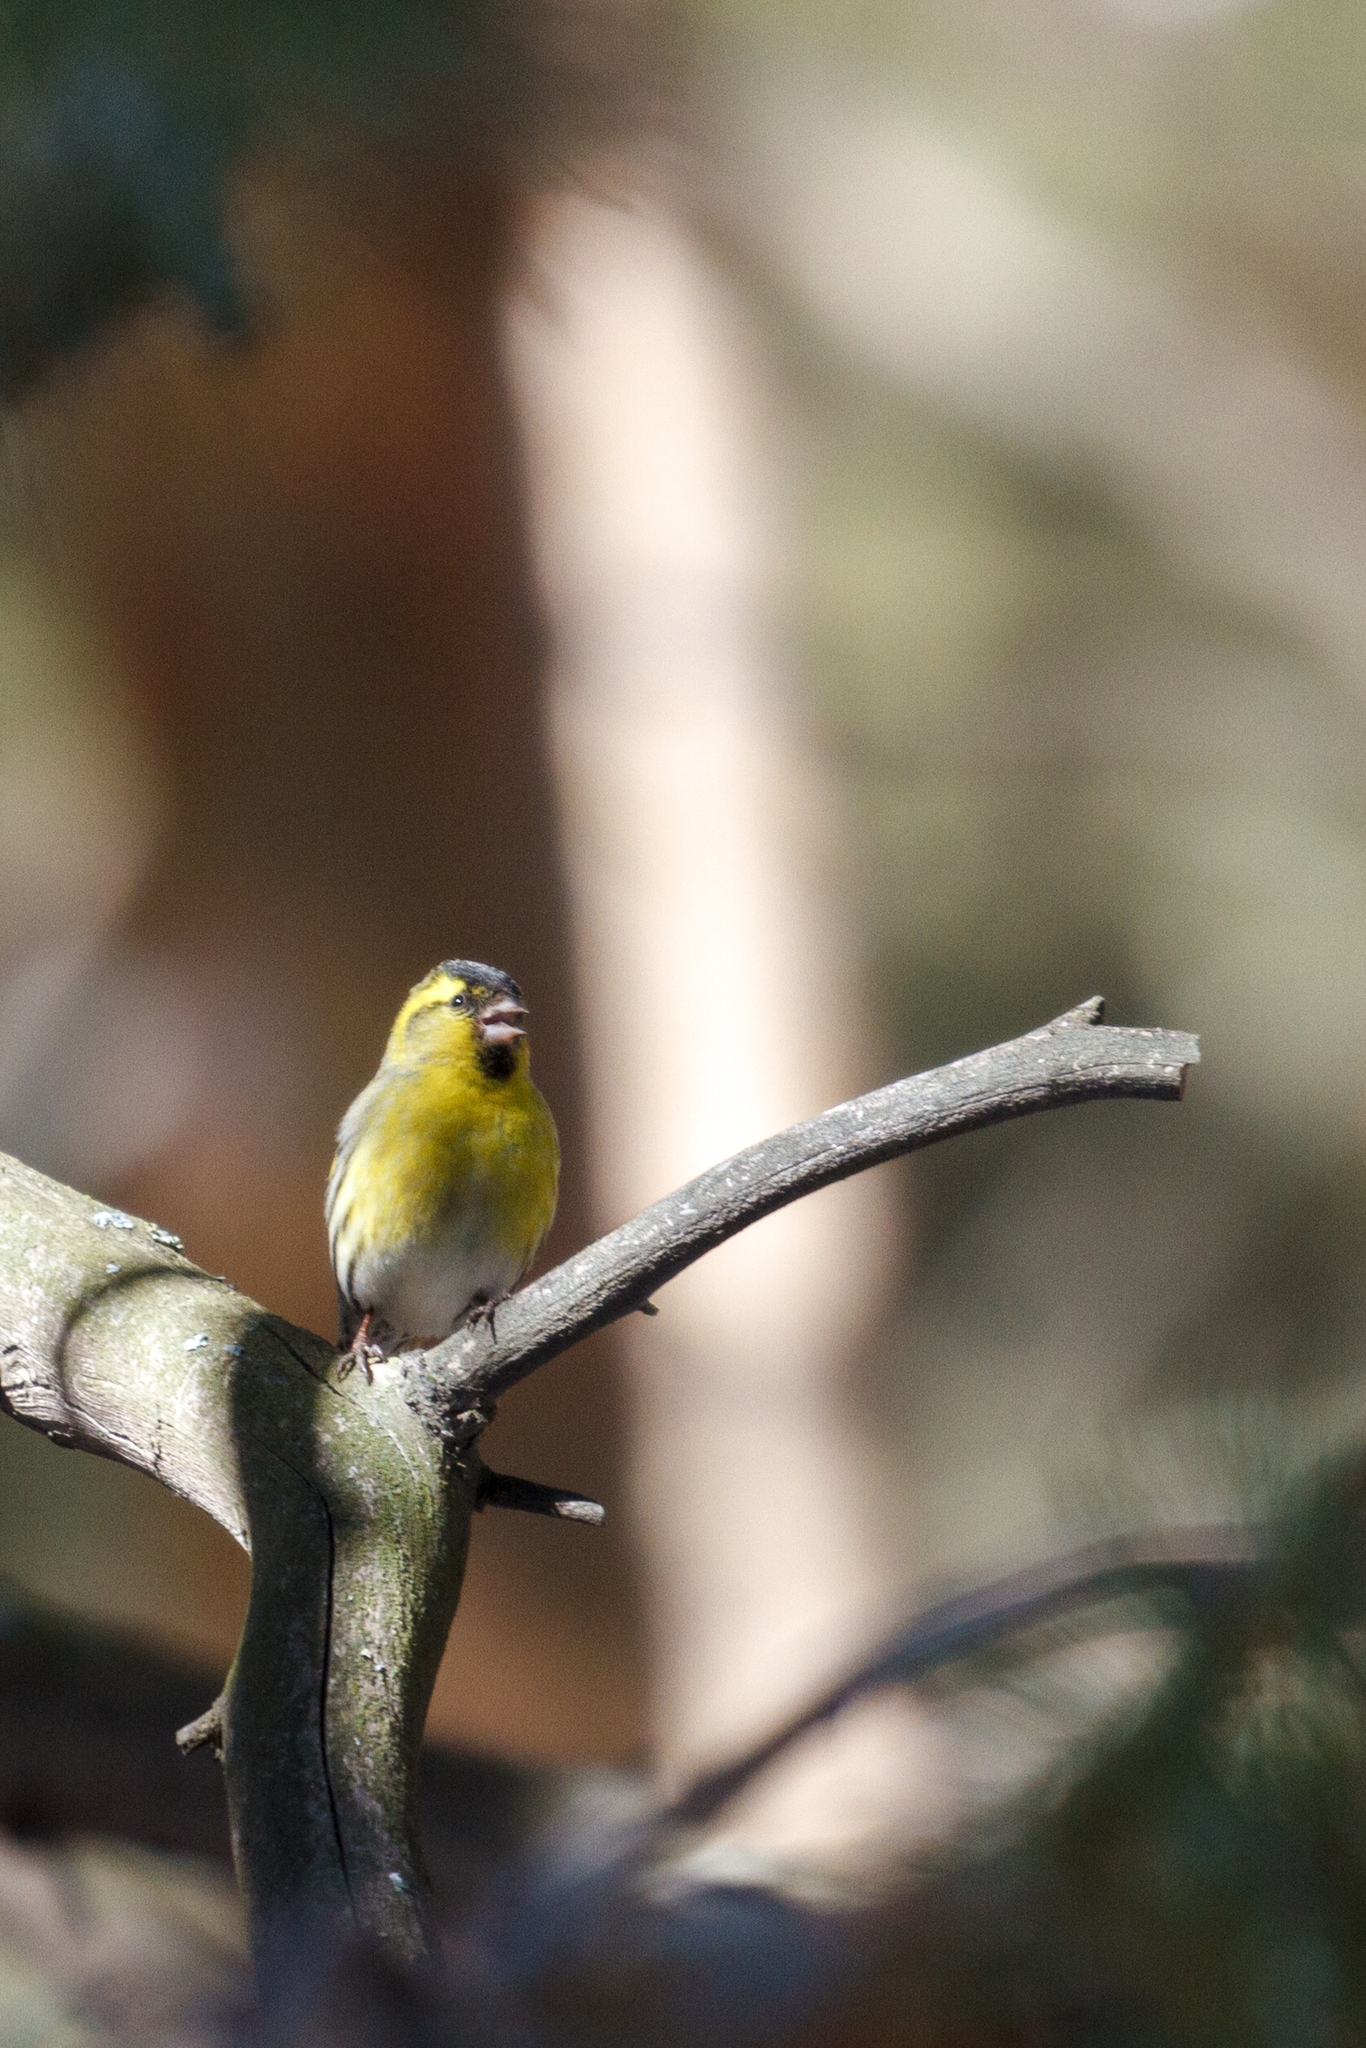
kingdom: Animalia
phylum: Chordata
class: Aves
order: Passeriformes
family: Fringillidae
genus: Spinus
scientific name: Spinus spinus
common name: Eurasian siskin
